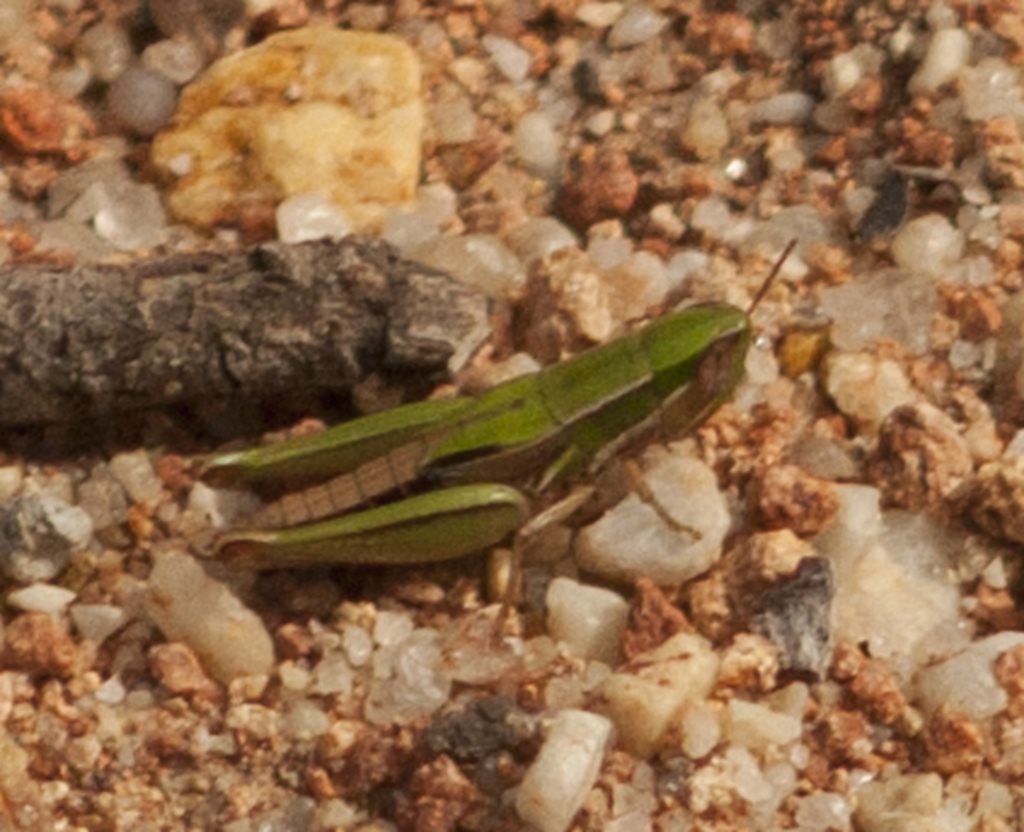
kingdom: Animalia
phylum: Arthropoda
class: Insecta
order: Orthoptera
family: Acrididae
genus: Laxabilla
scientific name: Laxabilla smaragdina
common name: Lewis's laxabilla
